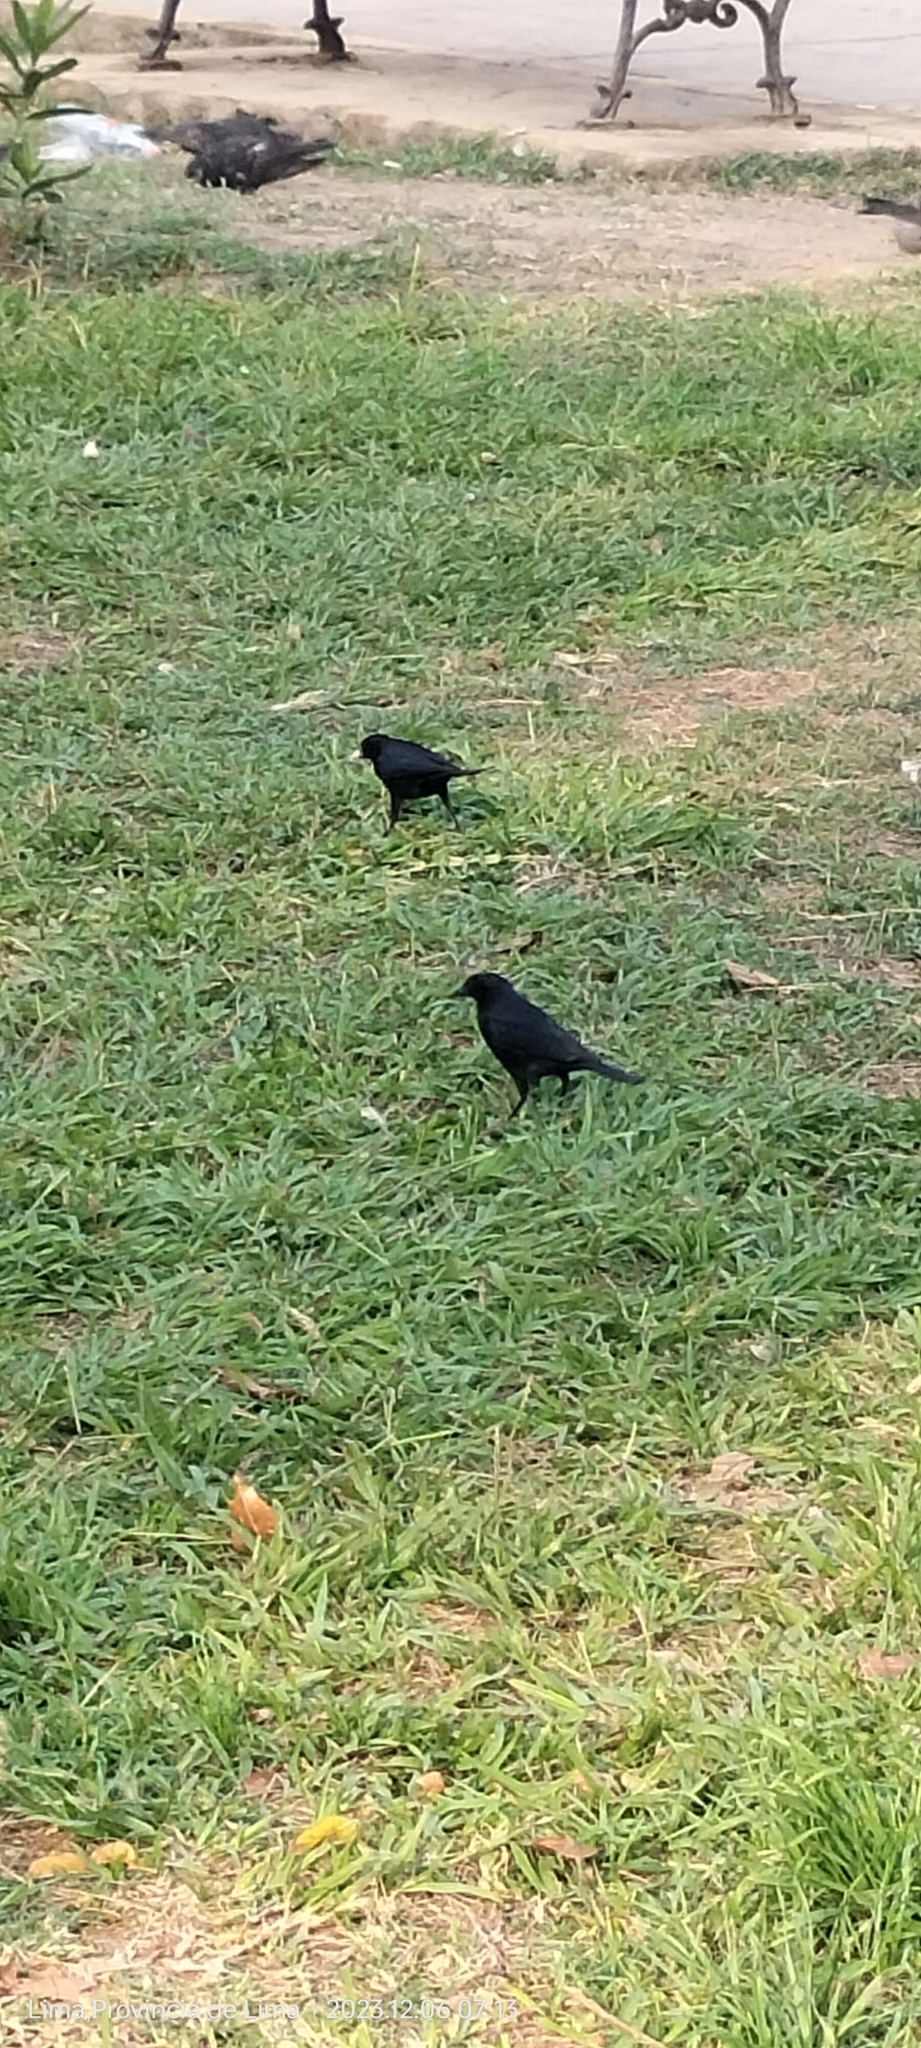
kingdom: Animalia
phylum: Chordata
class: Aves
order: Passeriformes
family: Icteridae
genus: Dives
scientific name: Dives warczewiczi
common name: Scrub blackbird
